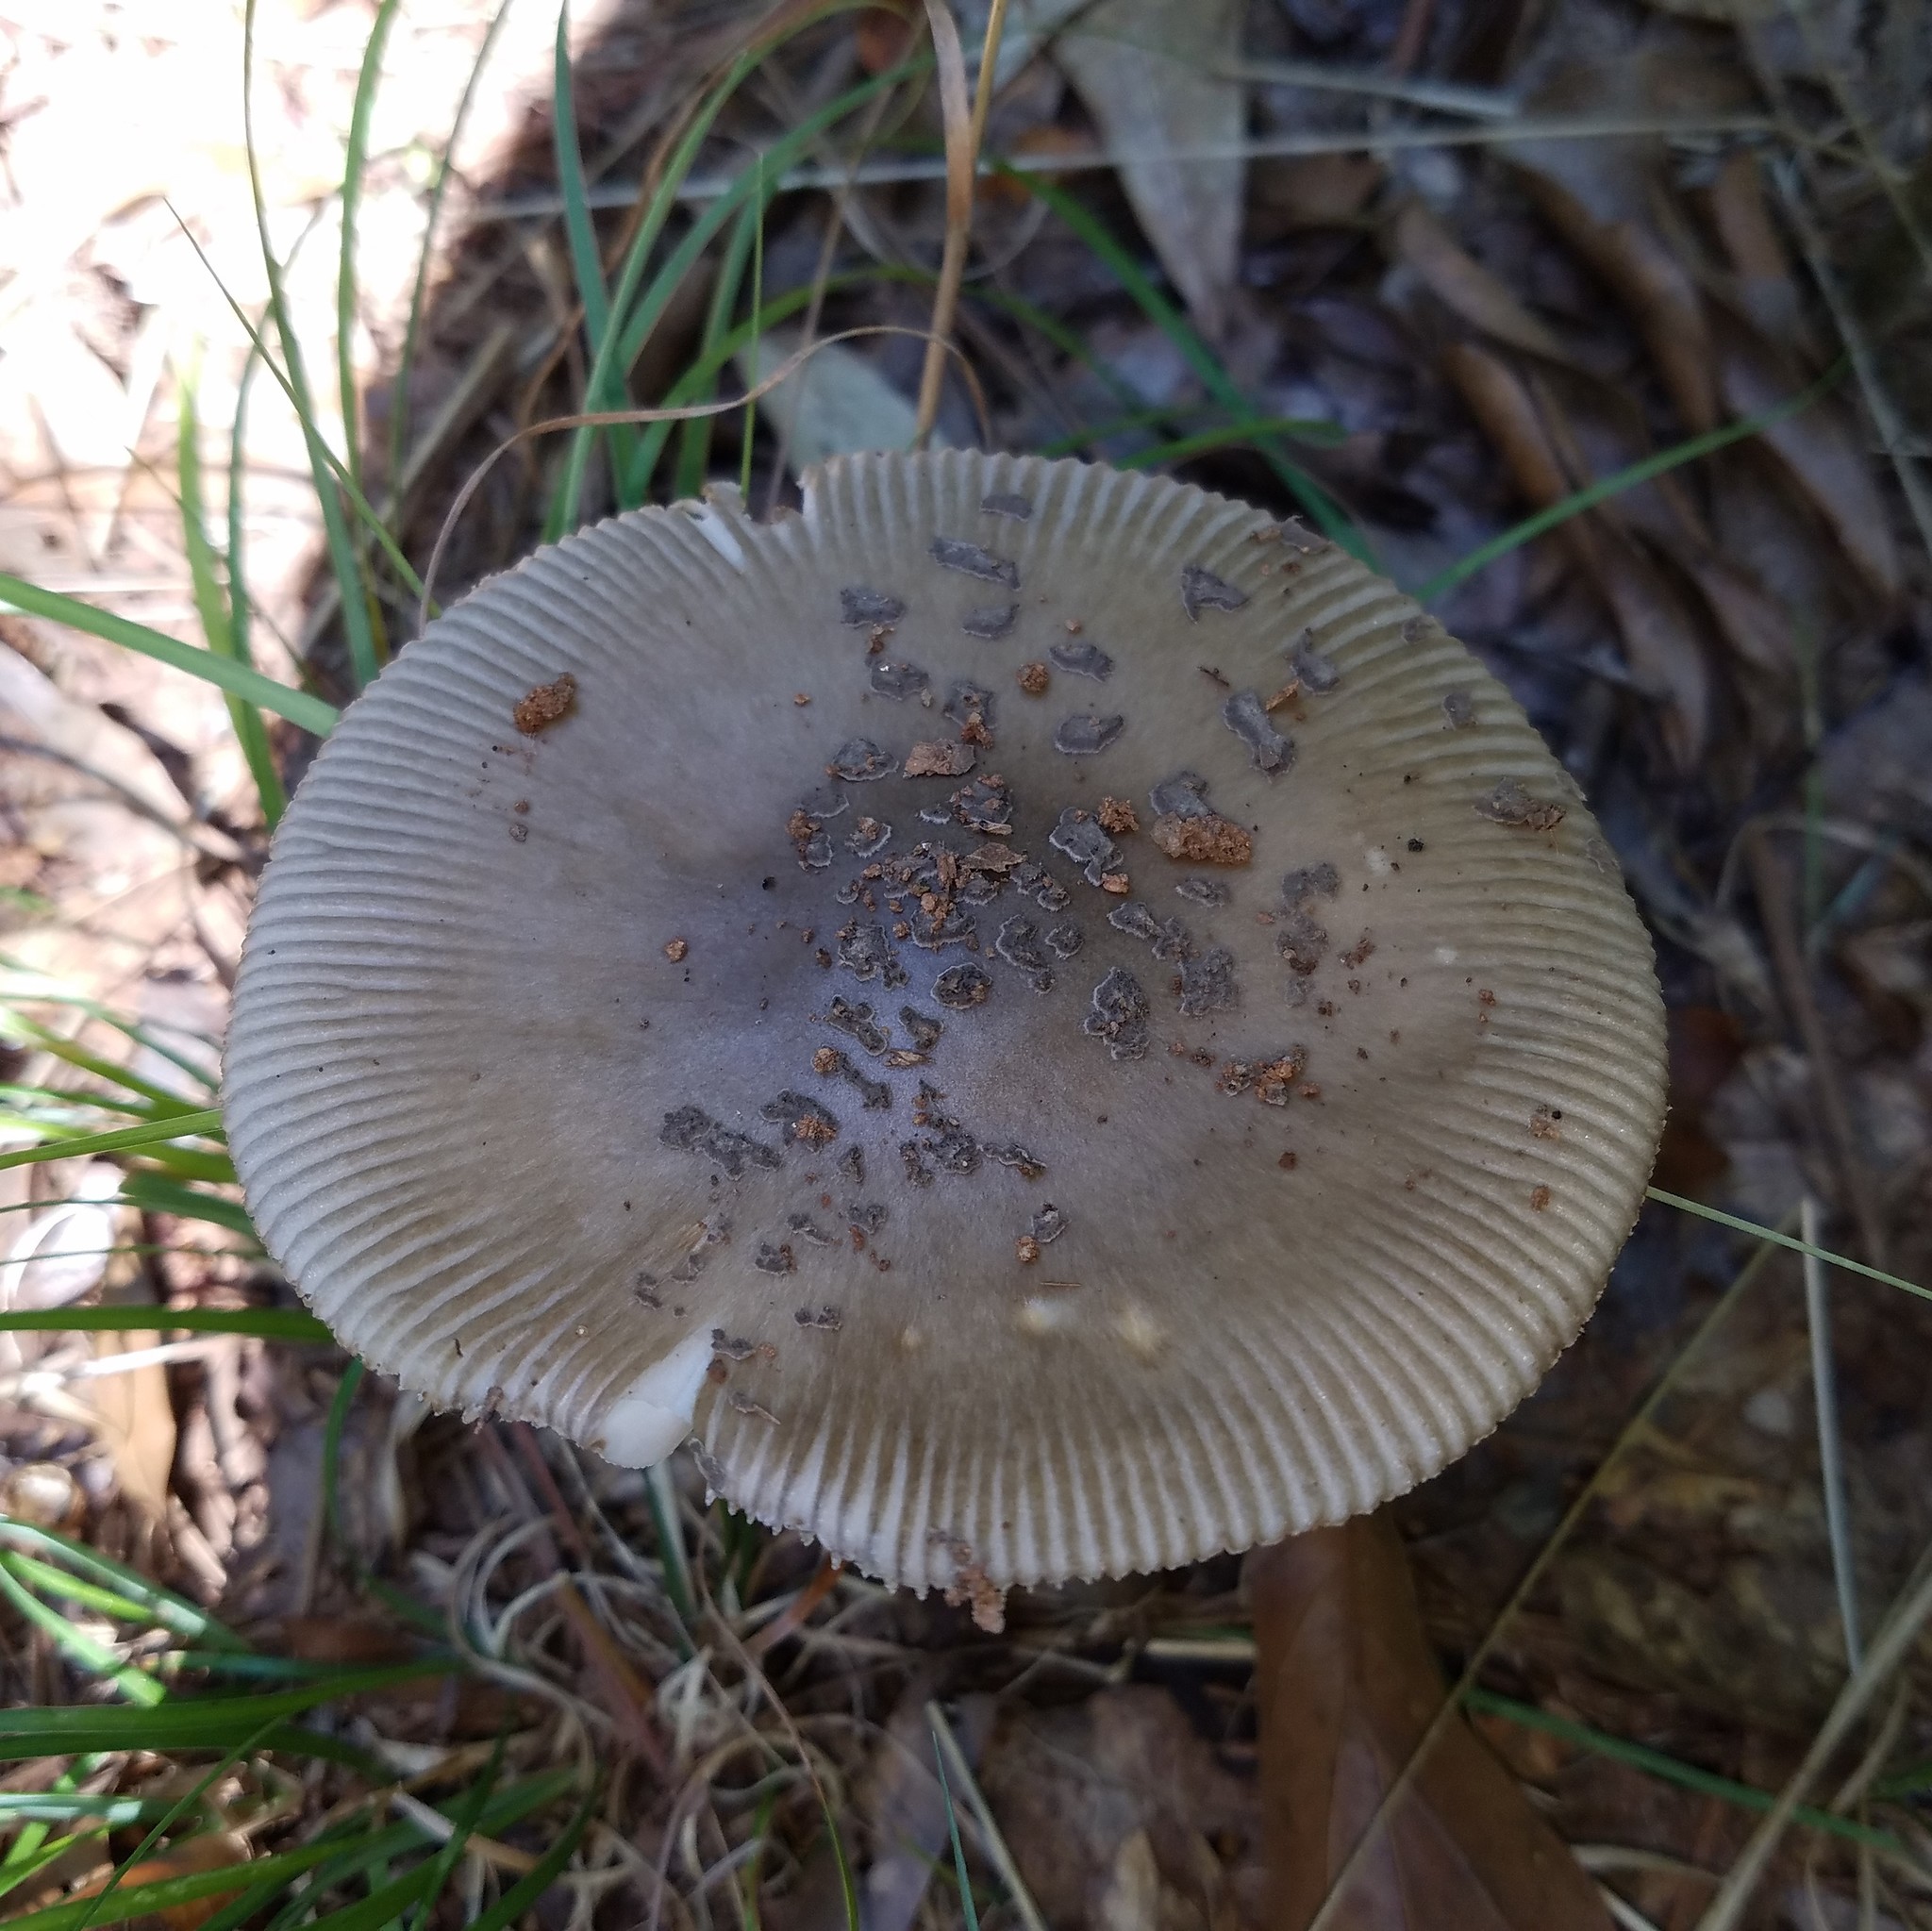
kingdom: Fungi
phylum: Basidiomycota
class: Agaricomycetes
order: Agaricales
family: Amanitaceae
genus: Amanita
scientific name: Amanita
